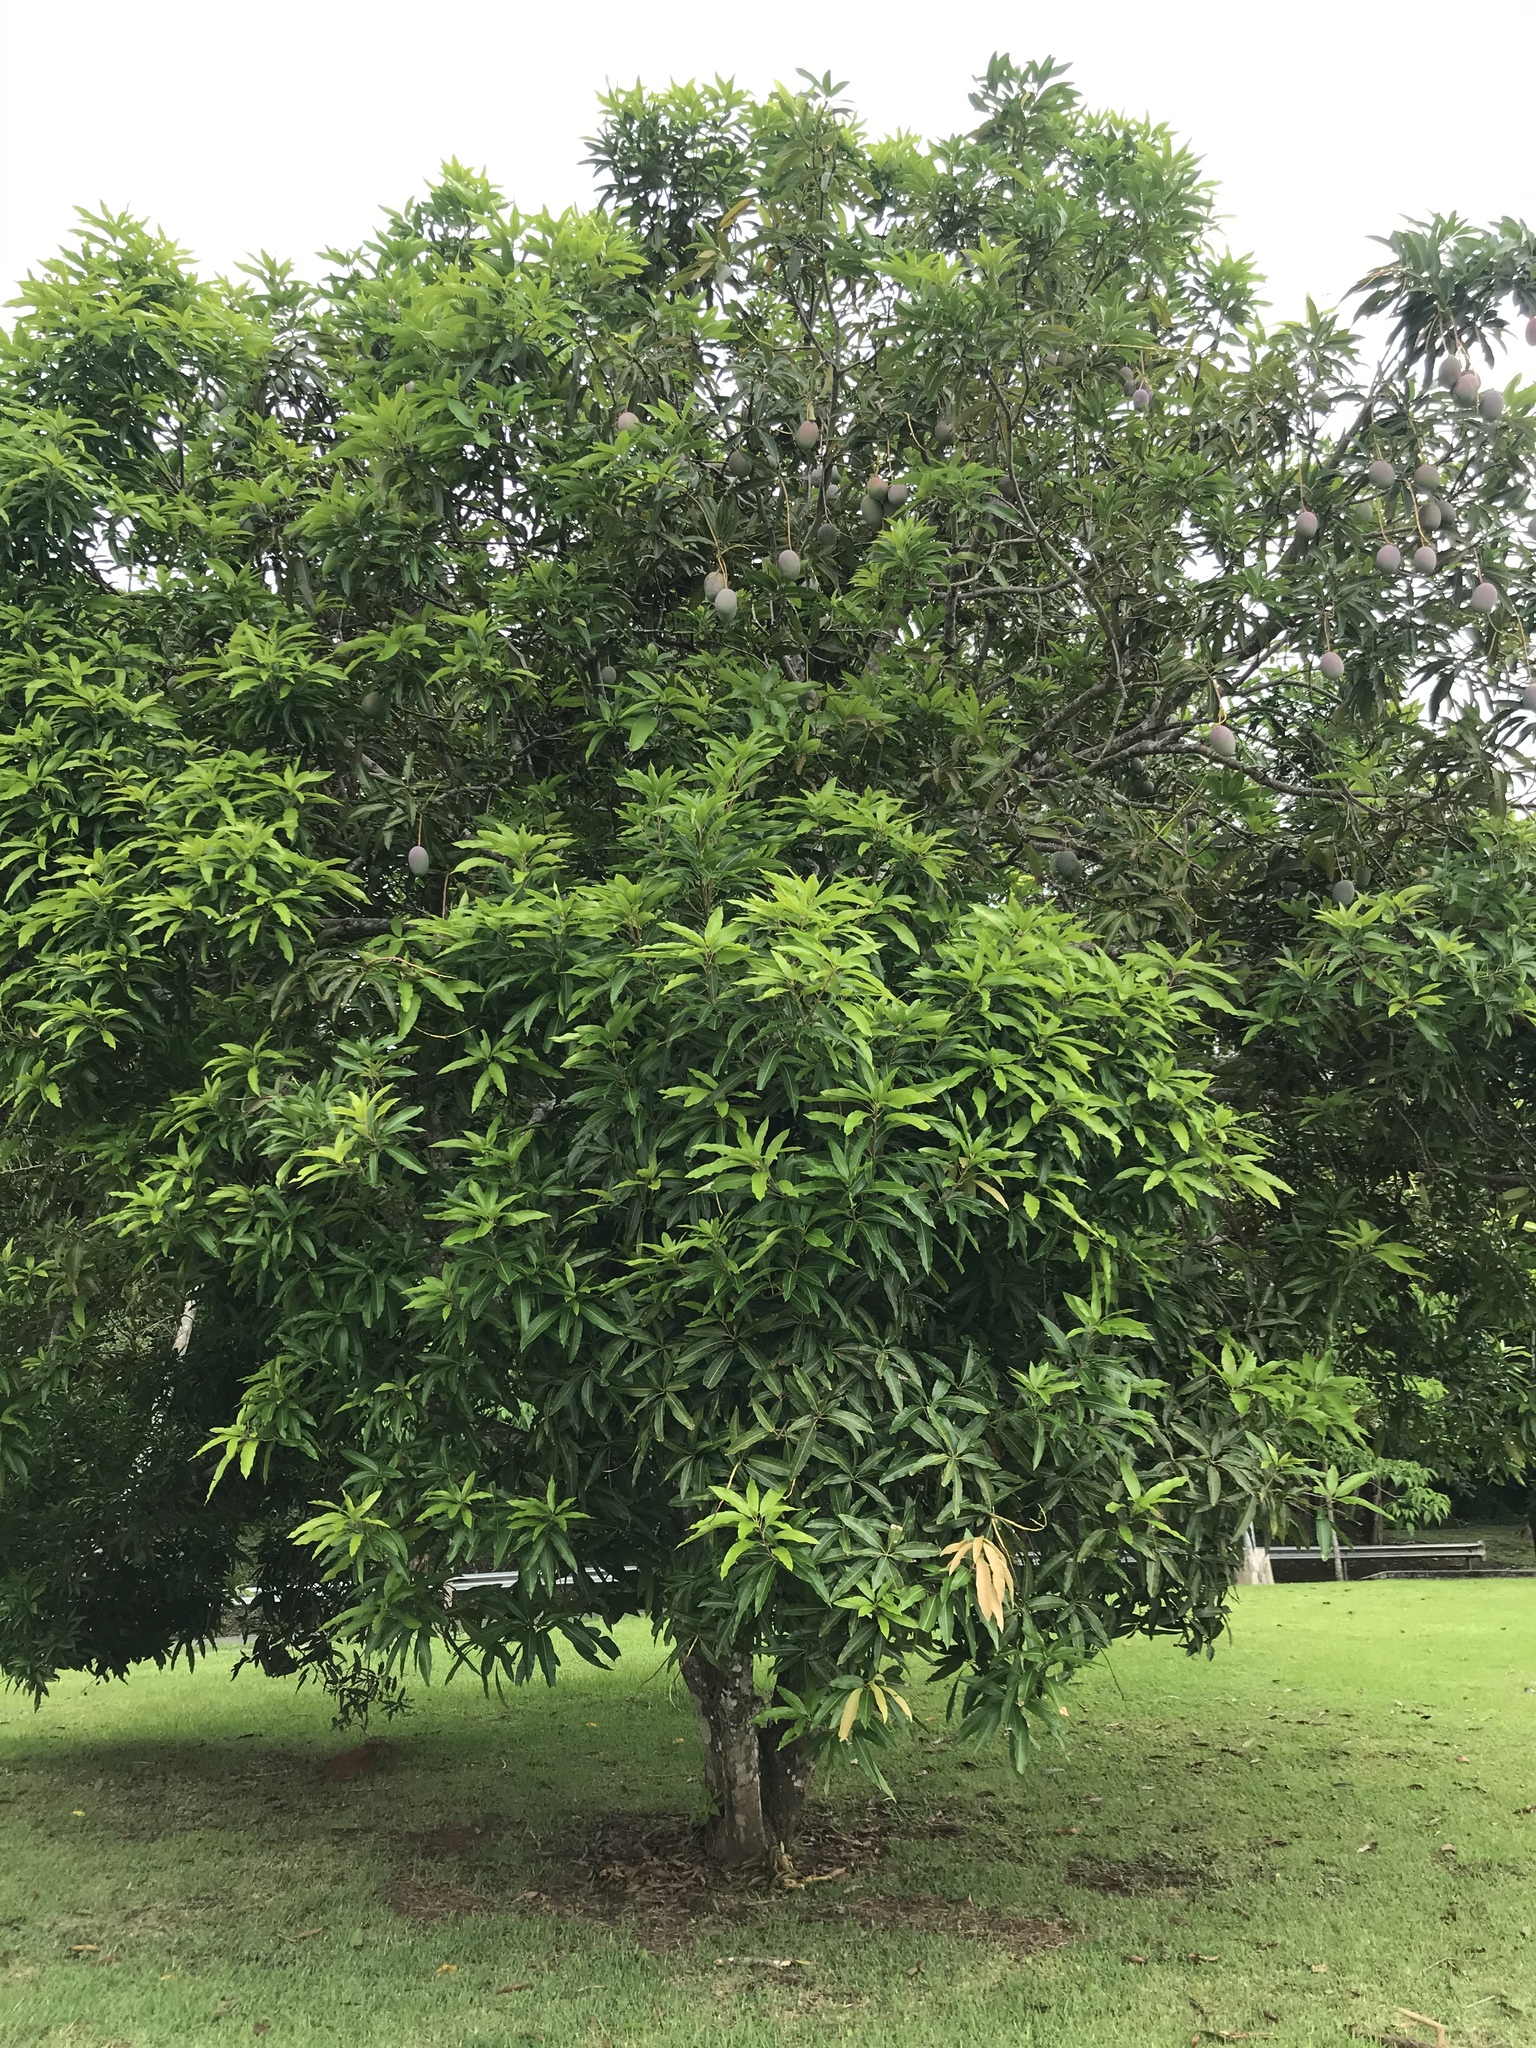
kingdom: Plantae
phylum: Tracheophyta
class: Magnoliopsida
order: Sapindales
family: Anacardiaceae
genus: Mangifera
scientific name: Mangifera indica
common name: Mango
